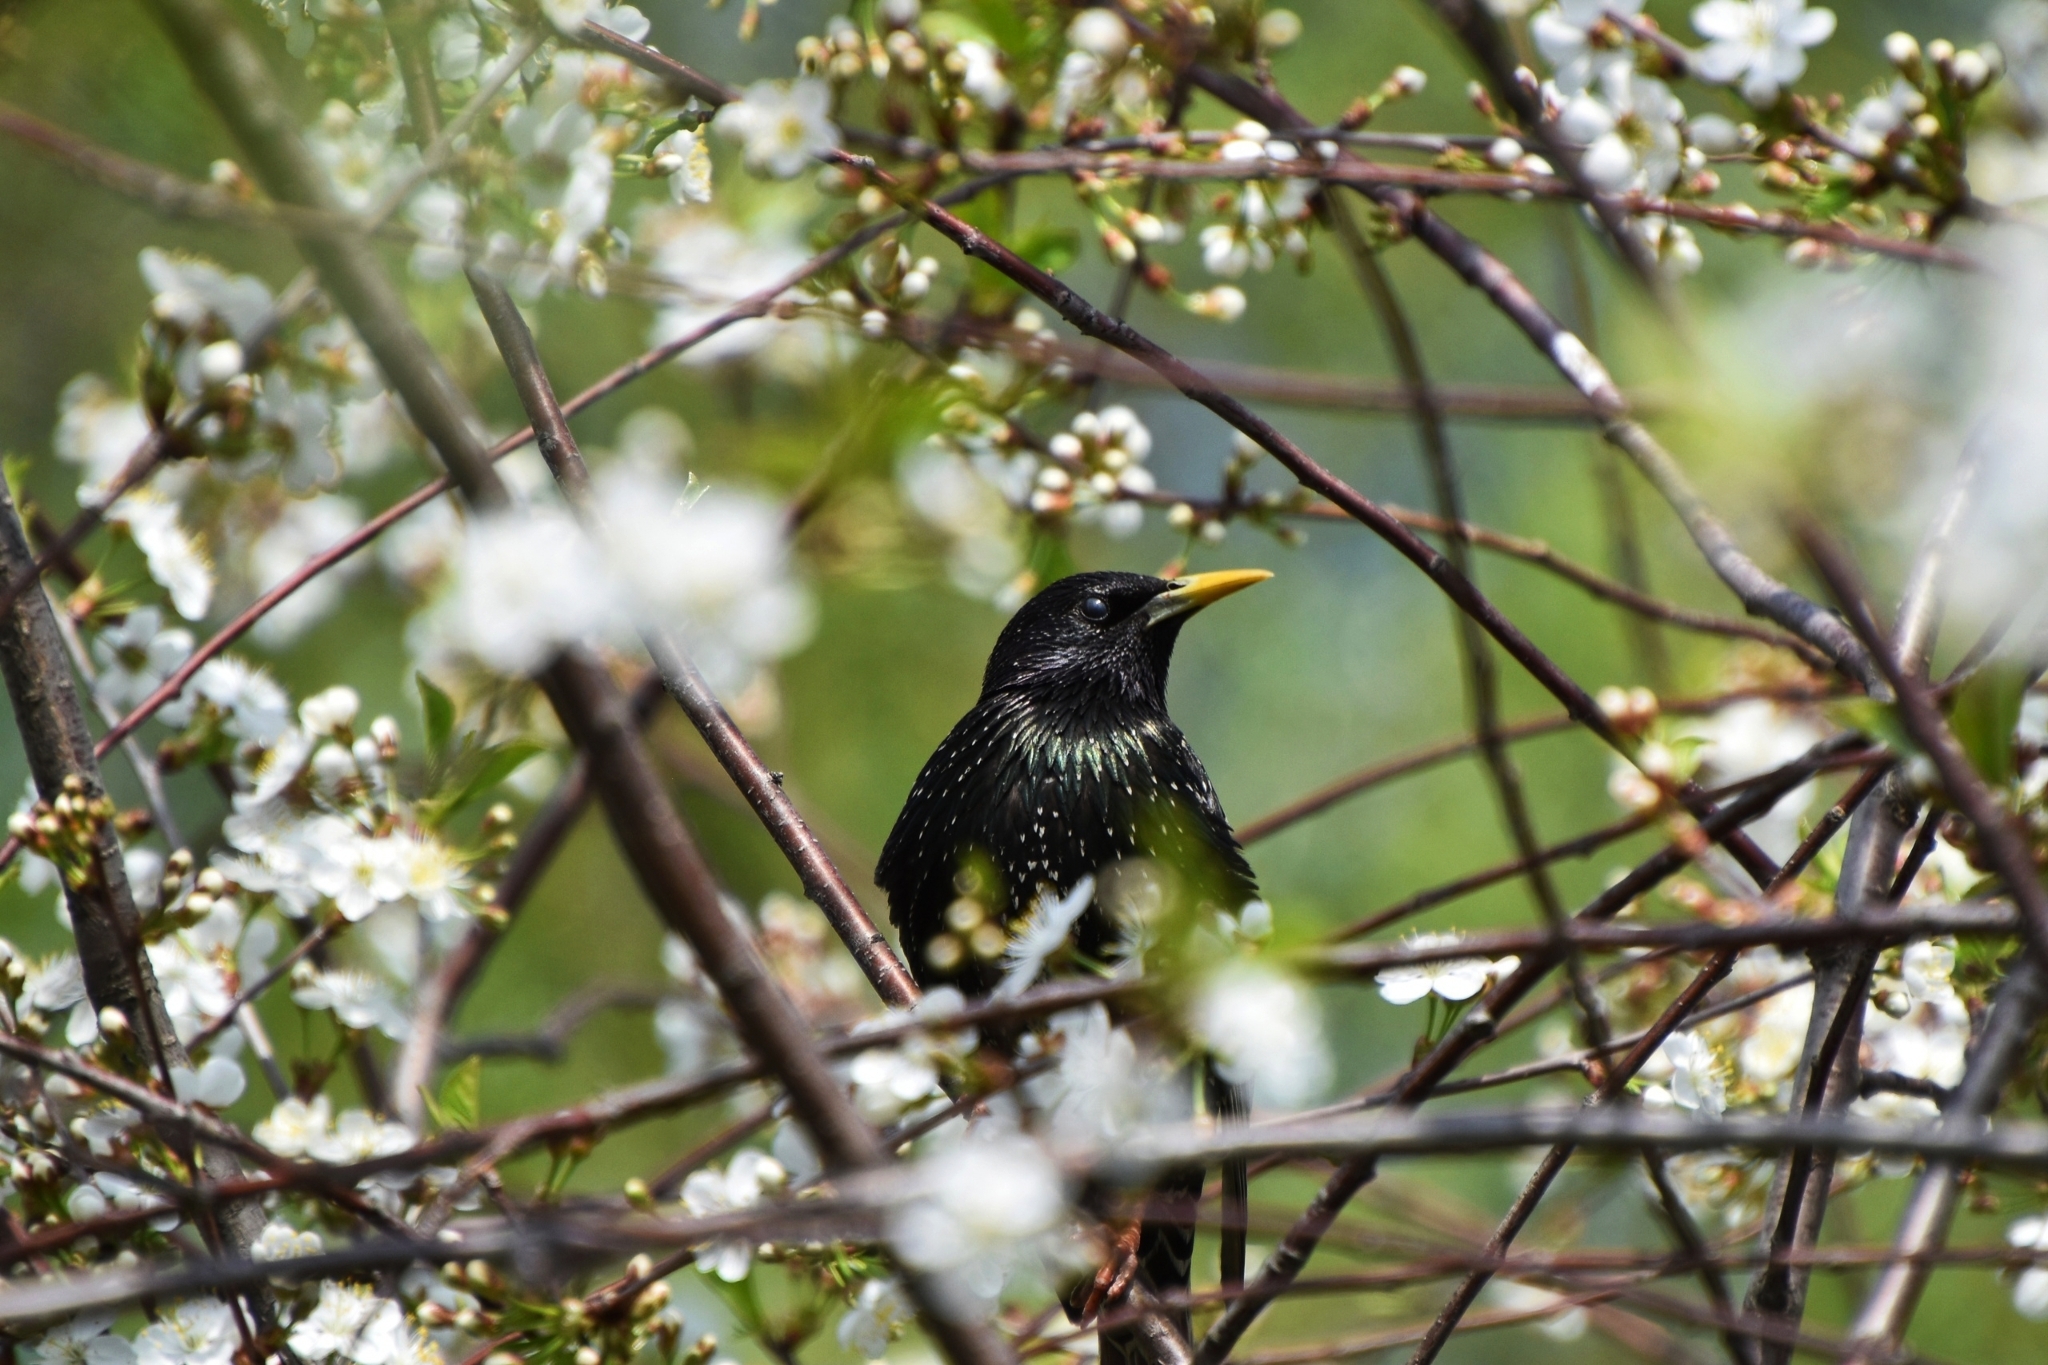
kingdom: Animalia
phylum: Chordata
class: Aves
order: Passeriformes
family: Sturnidae
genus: Sturnus
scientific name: Sturnus vulgaris
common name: Common starling
